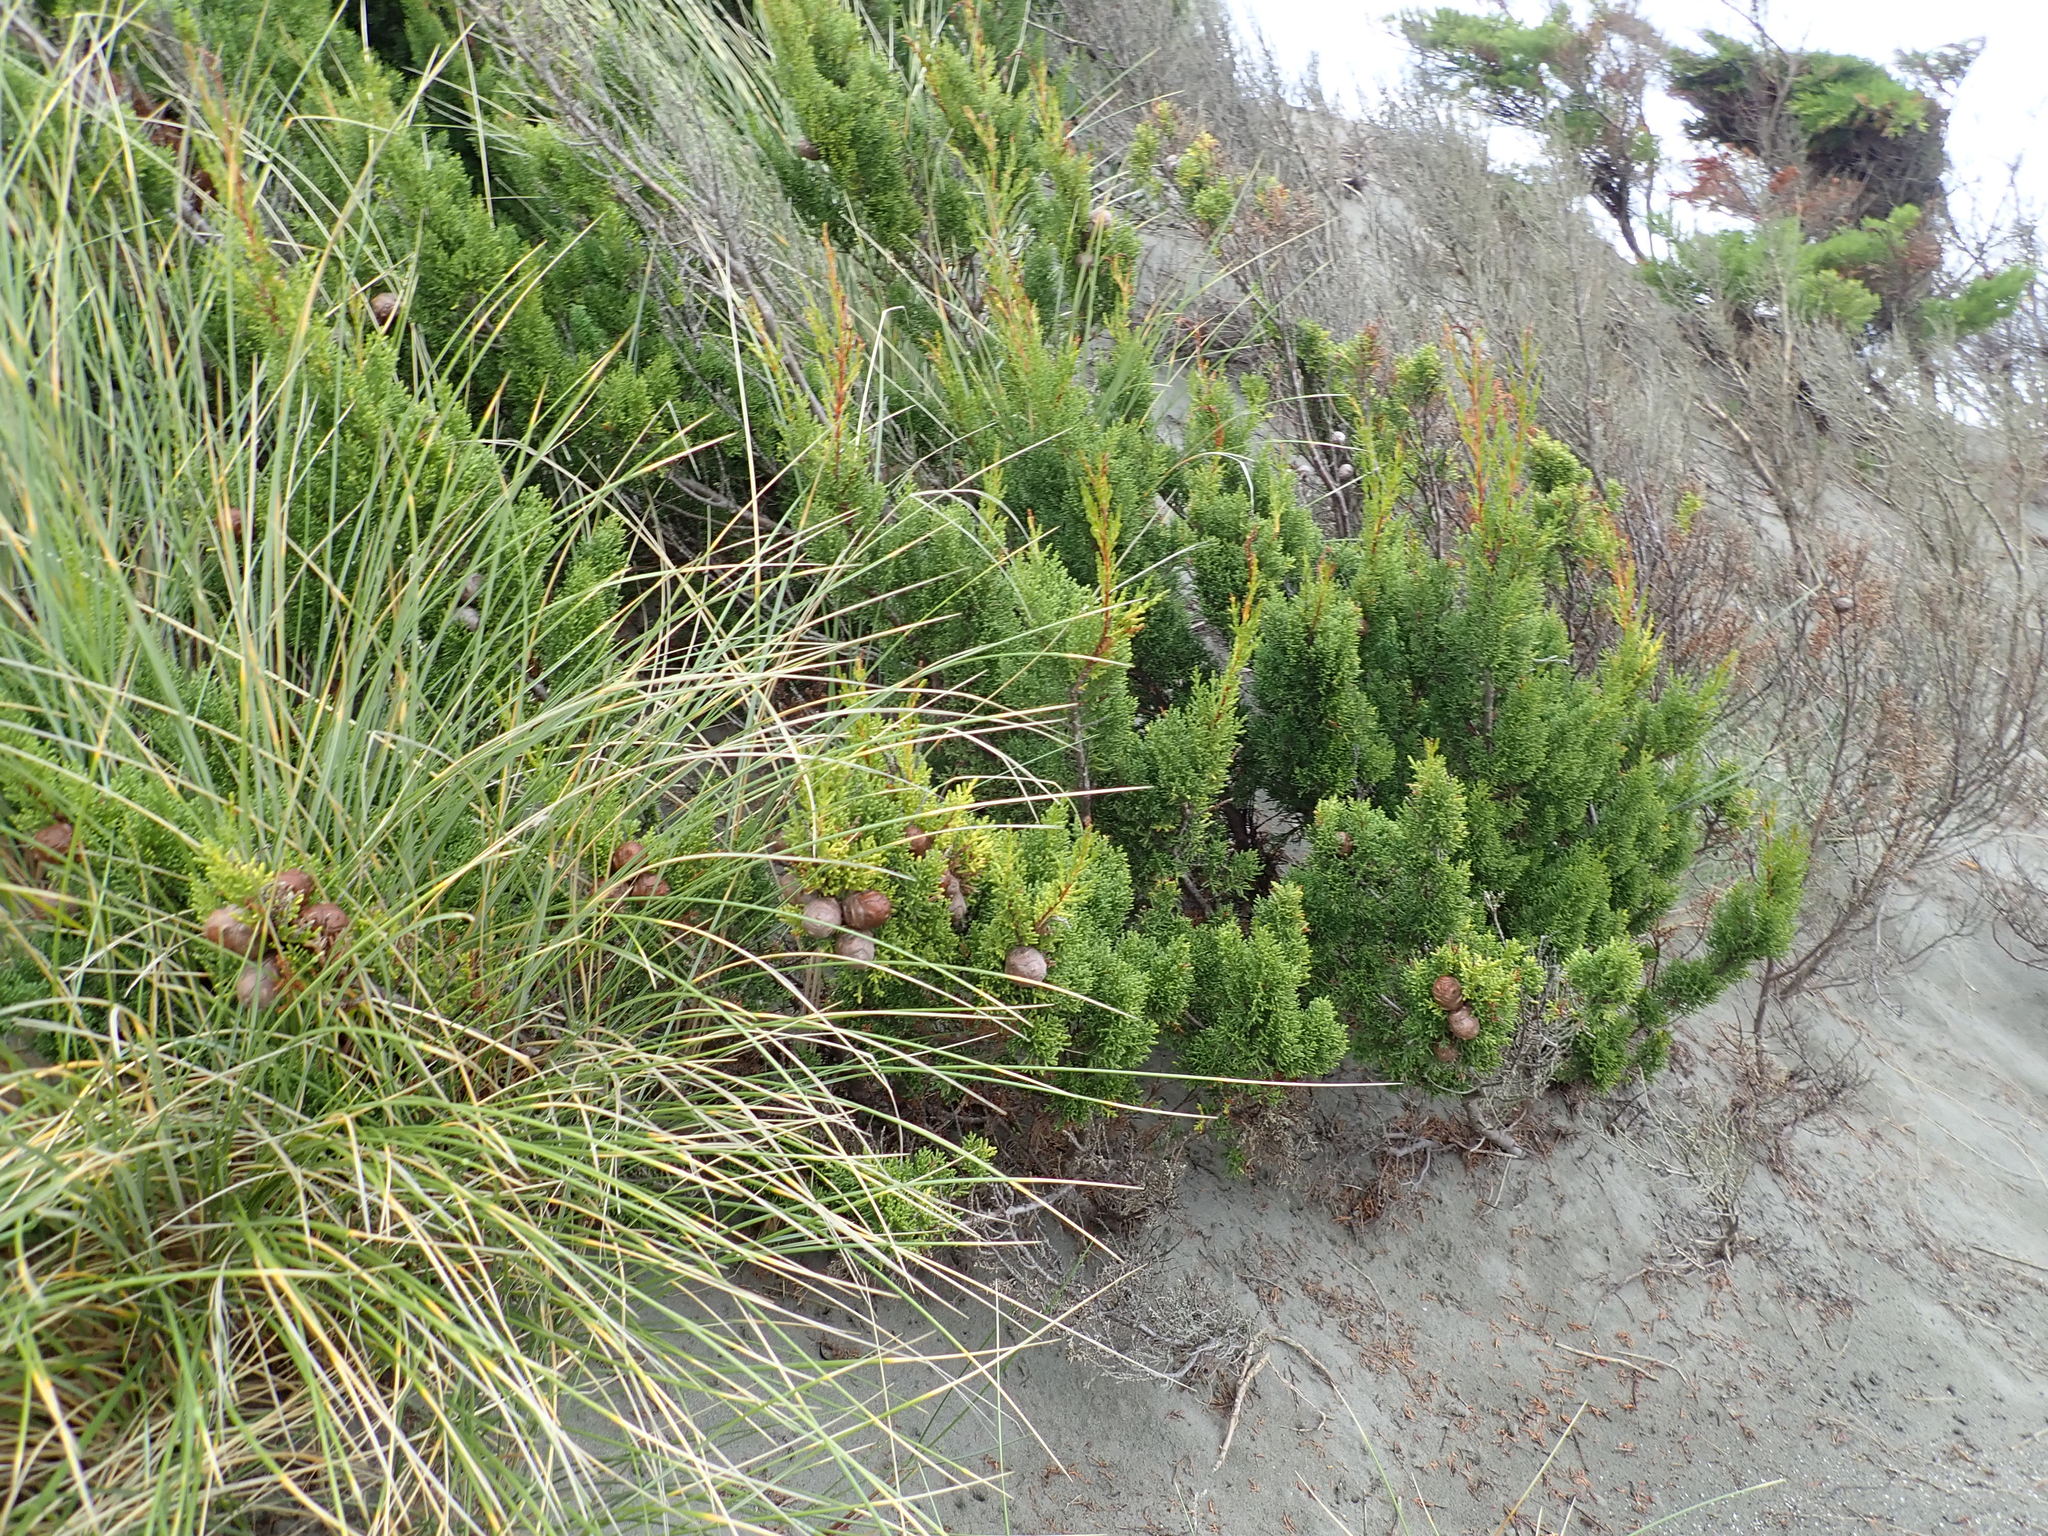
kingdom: Plantae
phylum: Tracheophyta
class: Pinopsida
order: Pinales
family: Cupressaceae
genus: Cupressus
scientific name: Cupressus macrocarpa
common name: Monterey cypress
